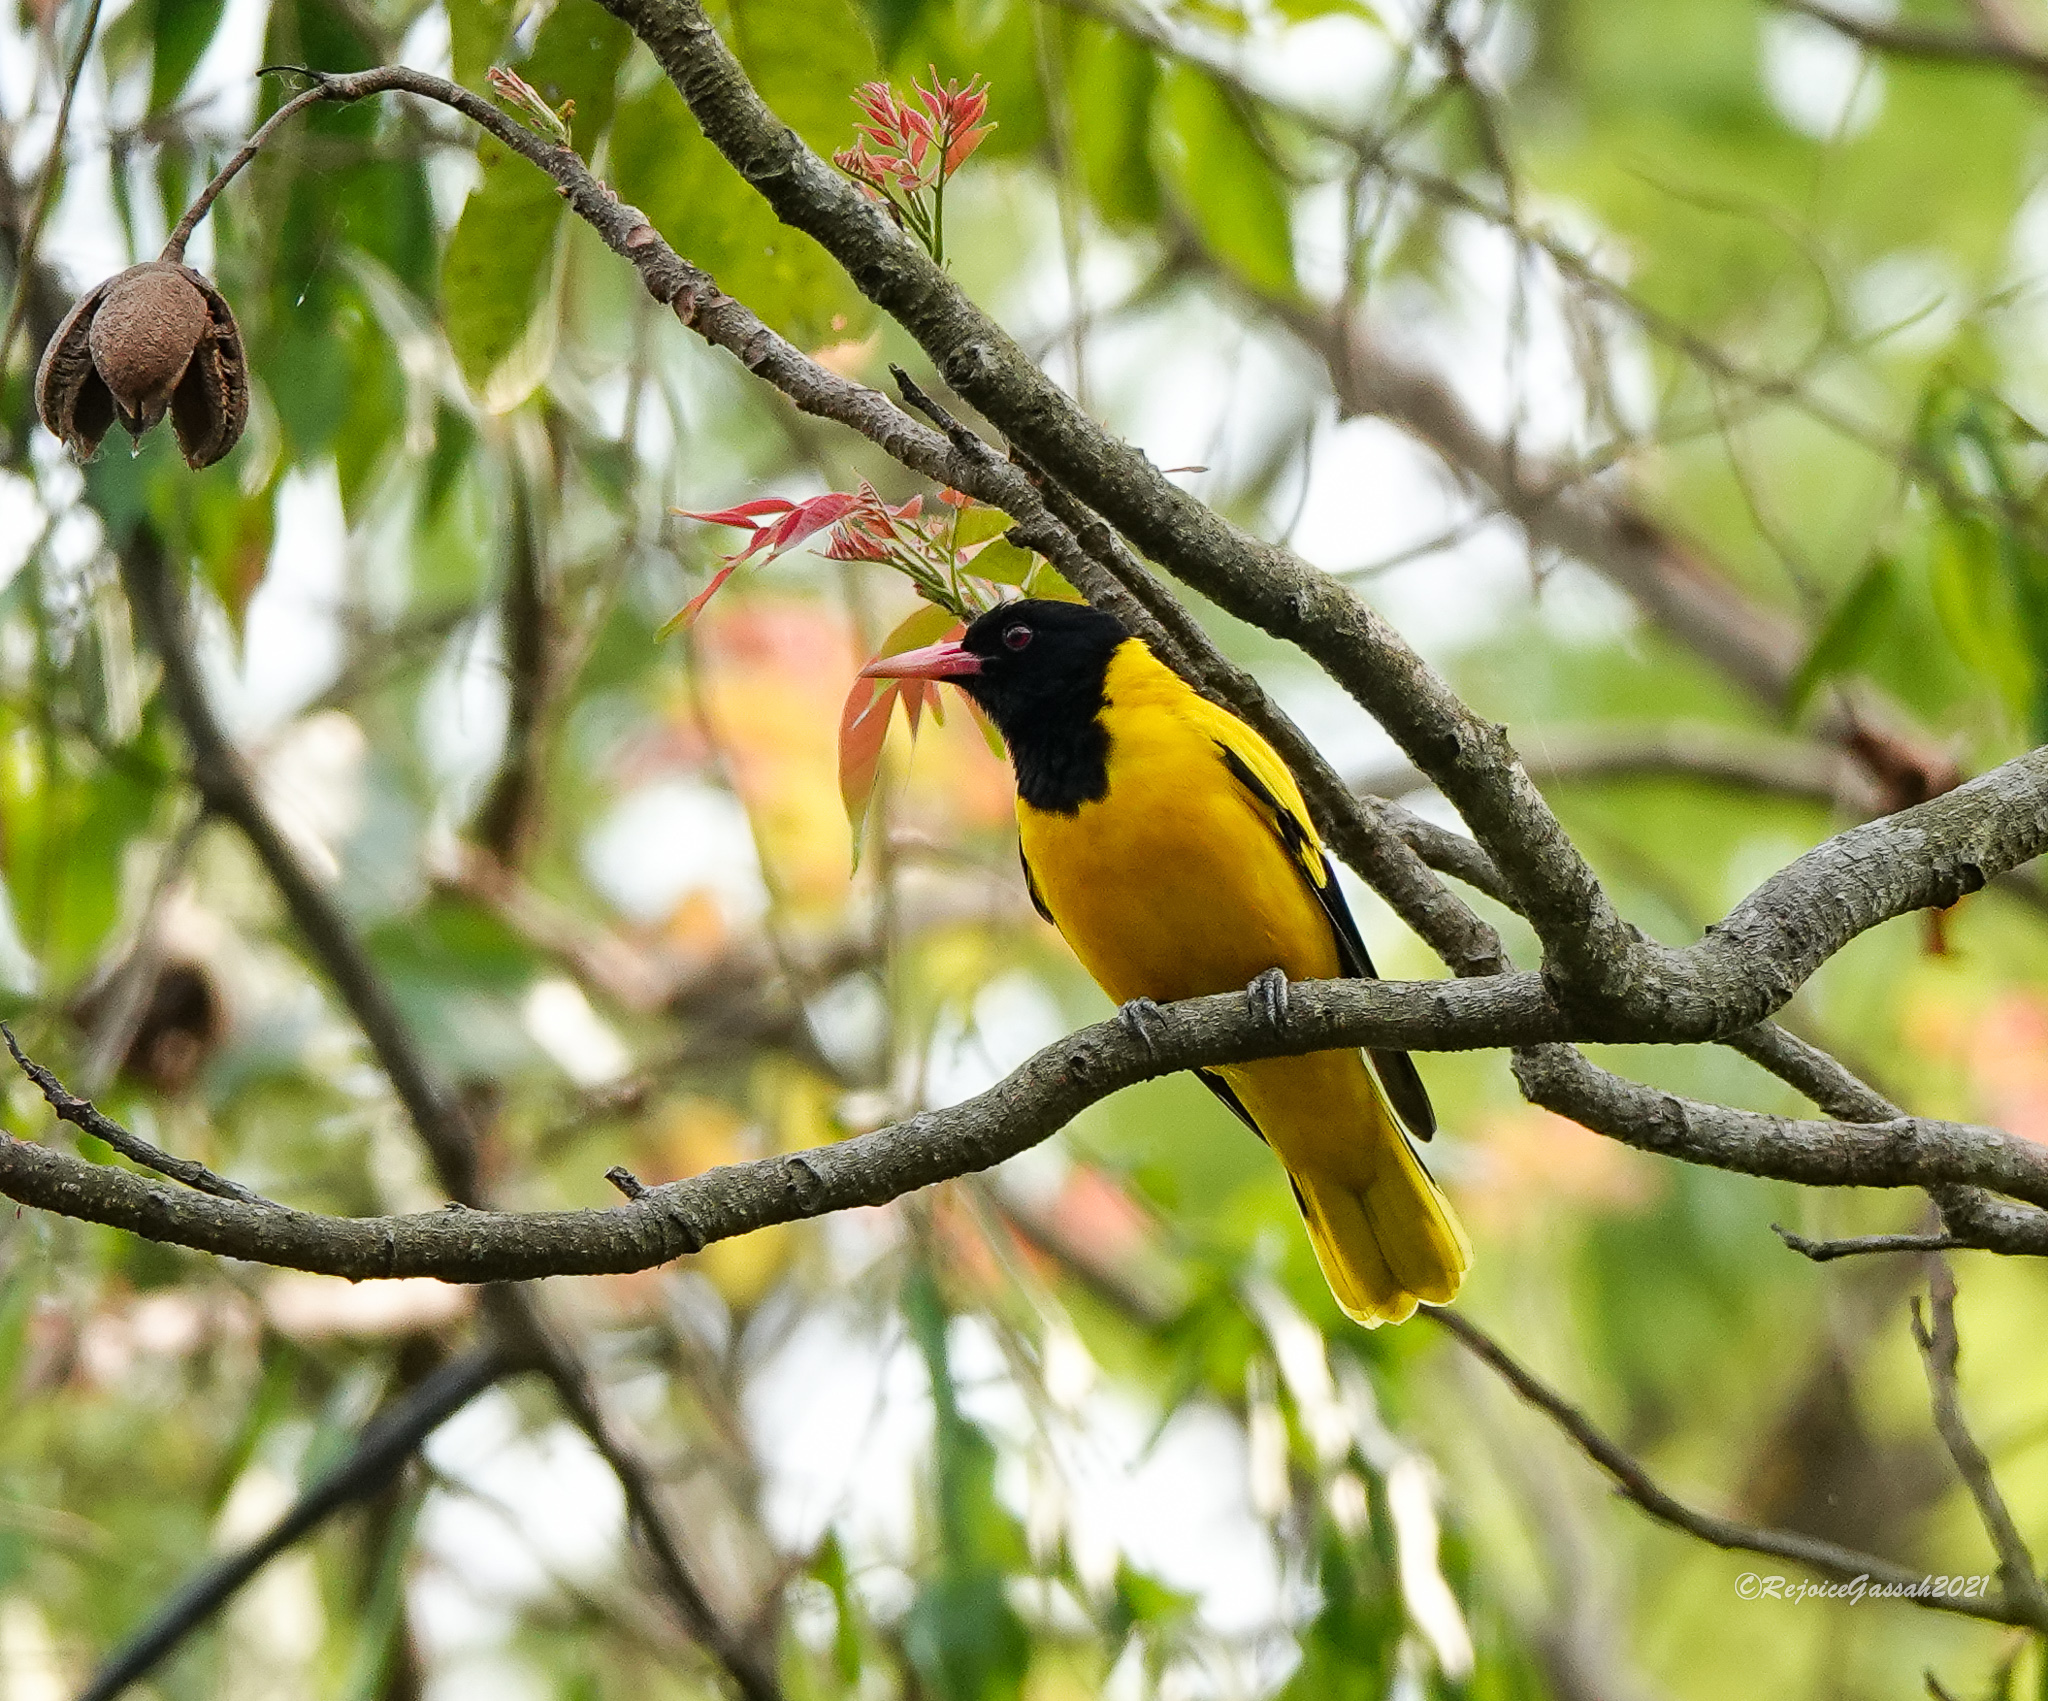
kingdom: Animalia
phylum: Chordata
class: Aves
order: Passeriformes
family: Oriolidae
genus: Oriolus
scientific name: Oriolus xanthornus
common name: Black-hooded oriole
